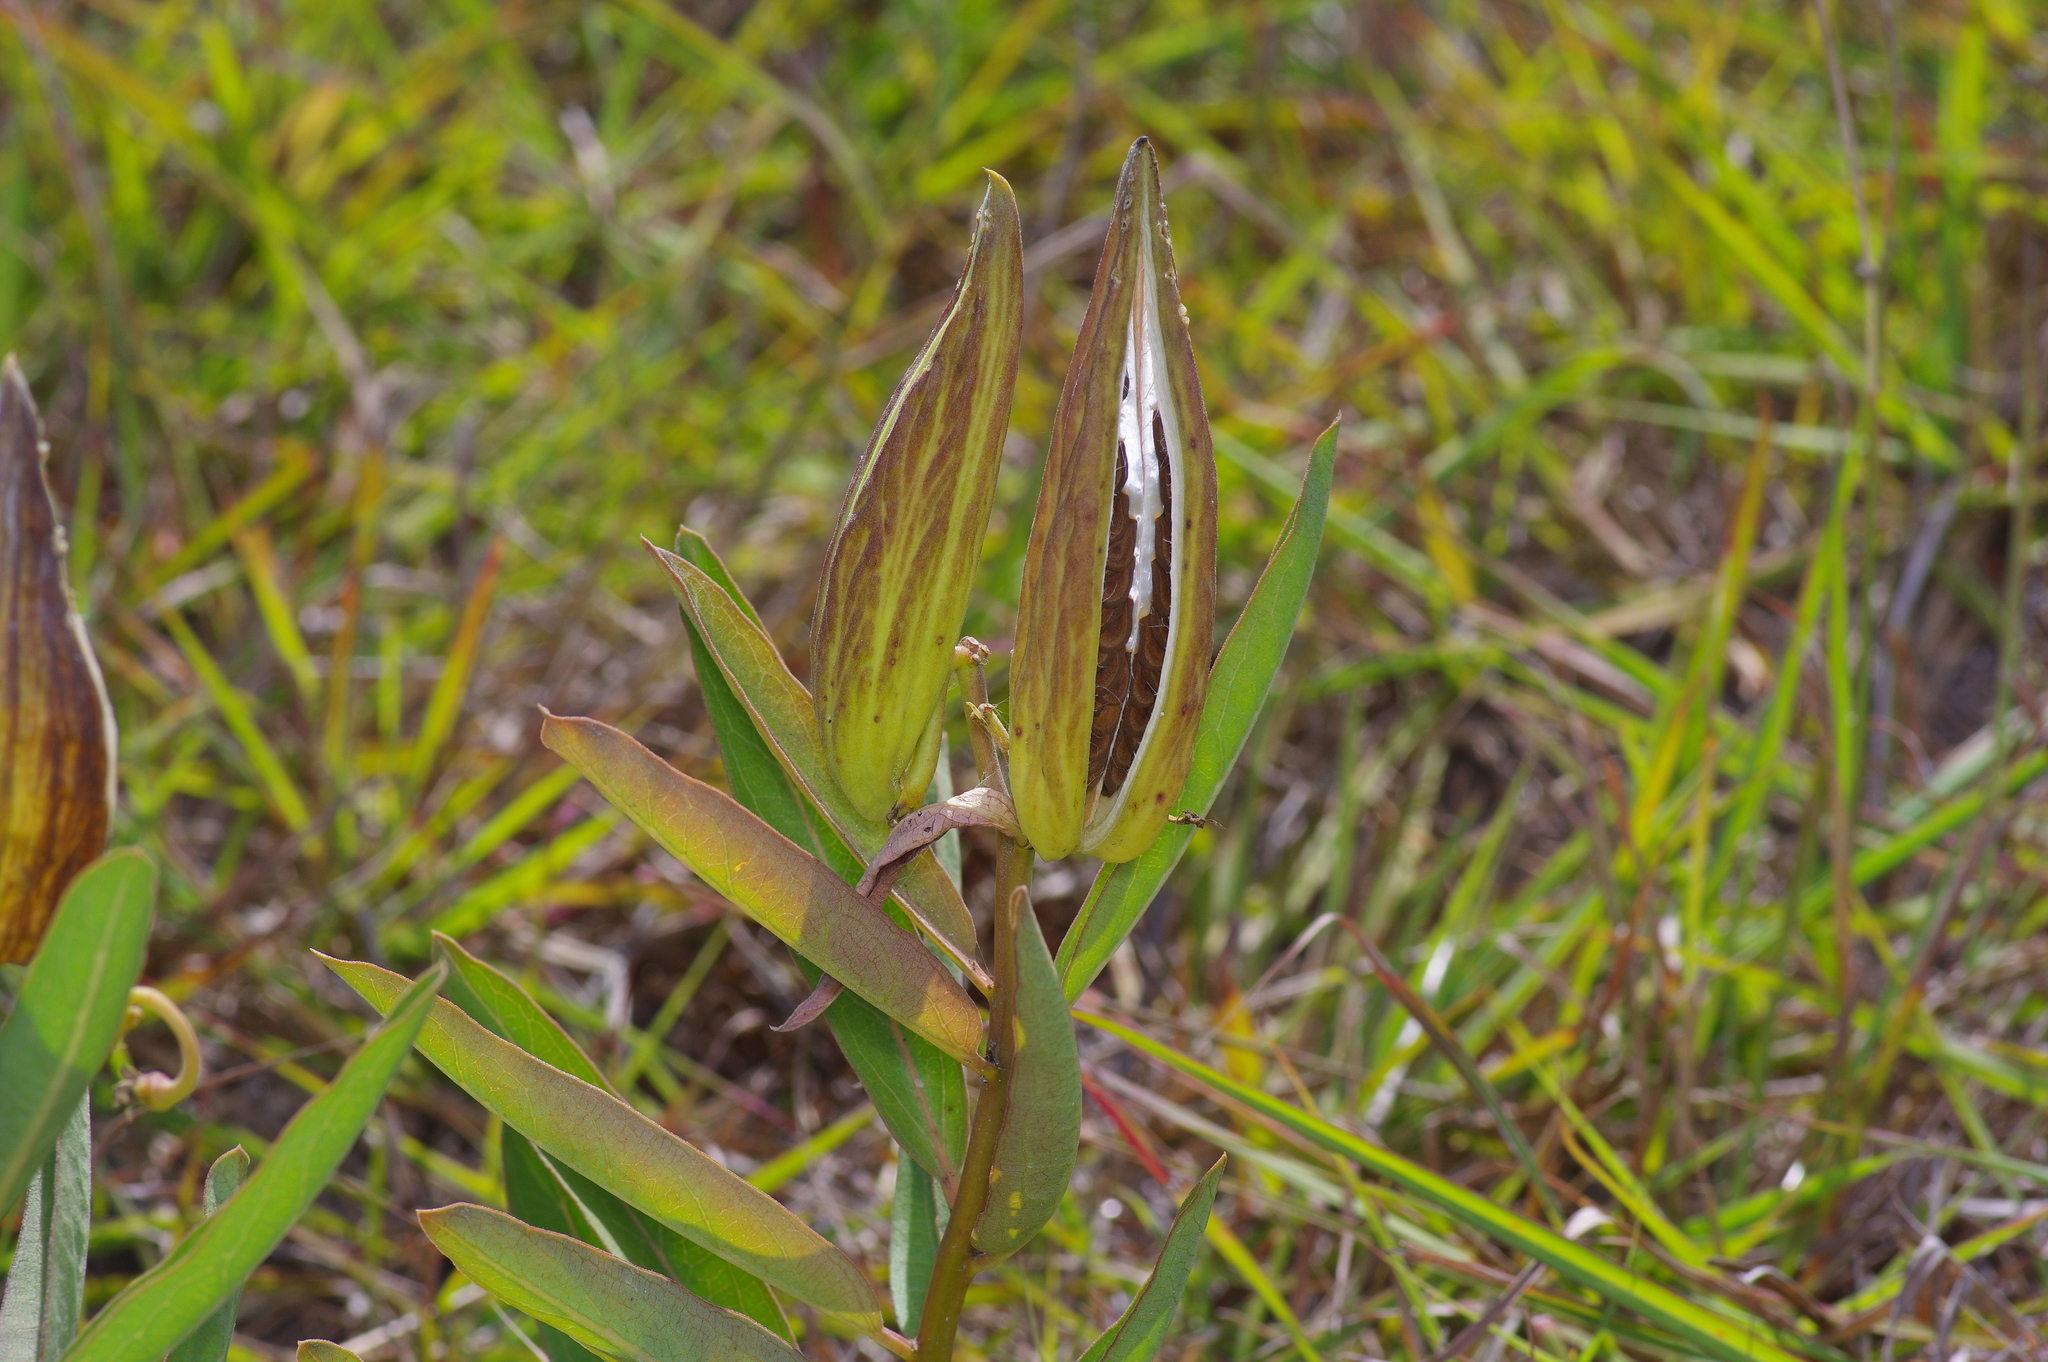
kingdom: Plantae
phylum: Tracheophyta
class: Magnoliopsida
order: Gentianales
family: Apocynaceae
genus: Asclepias
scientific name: Asclepias viridis
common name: Antelope-horns
